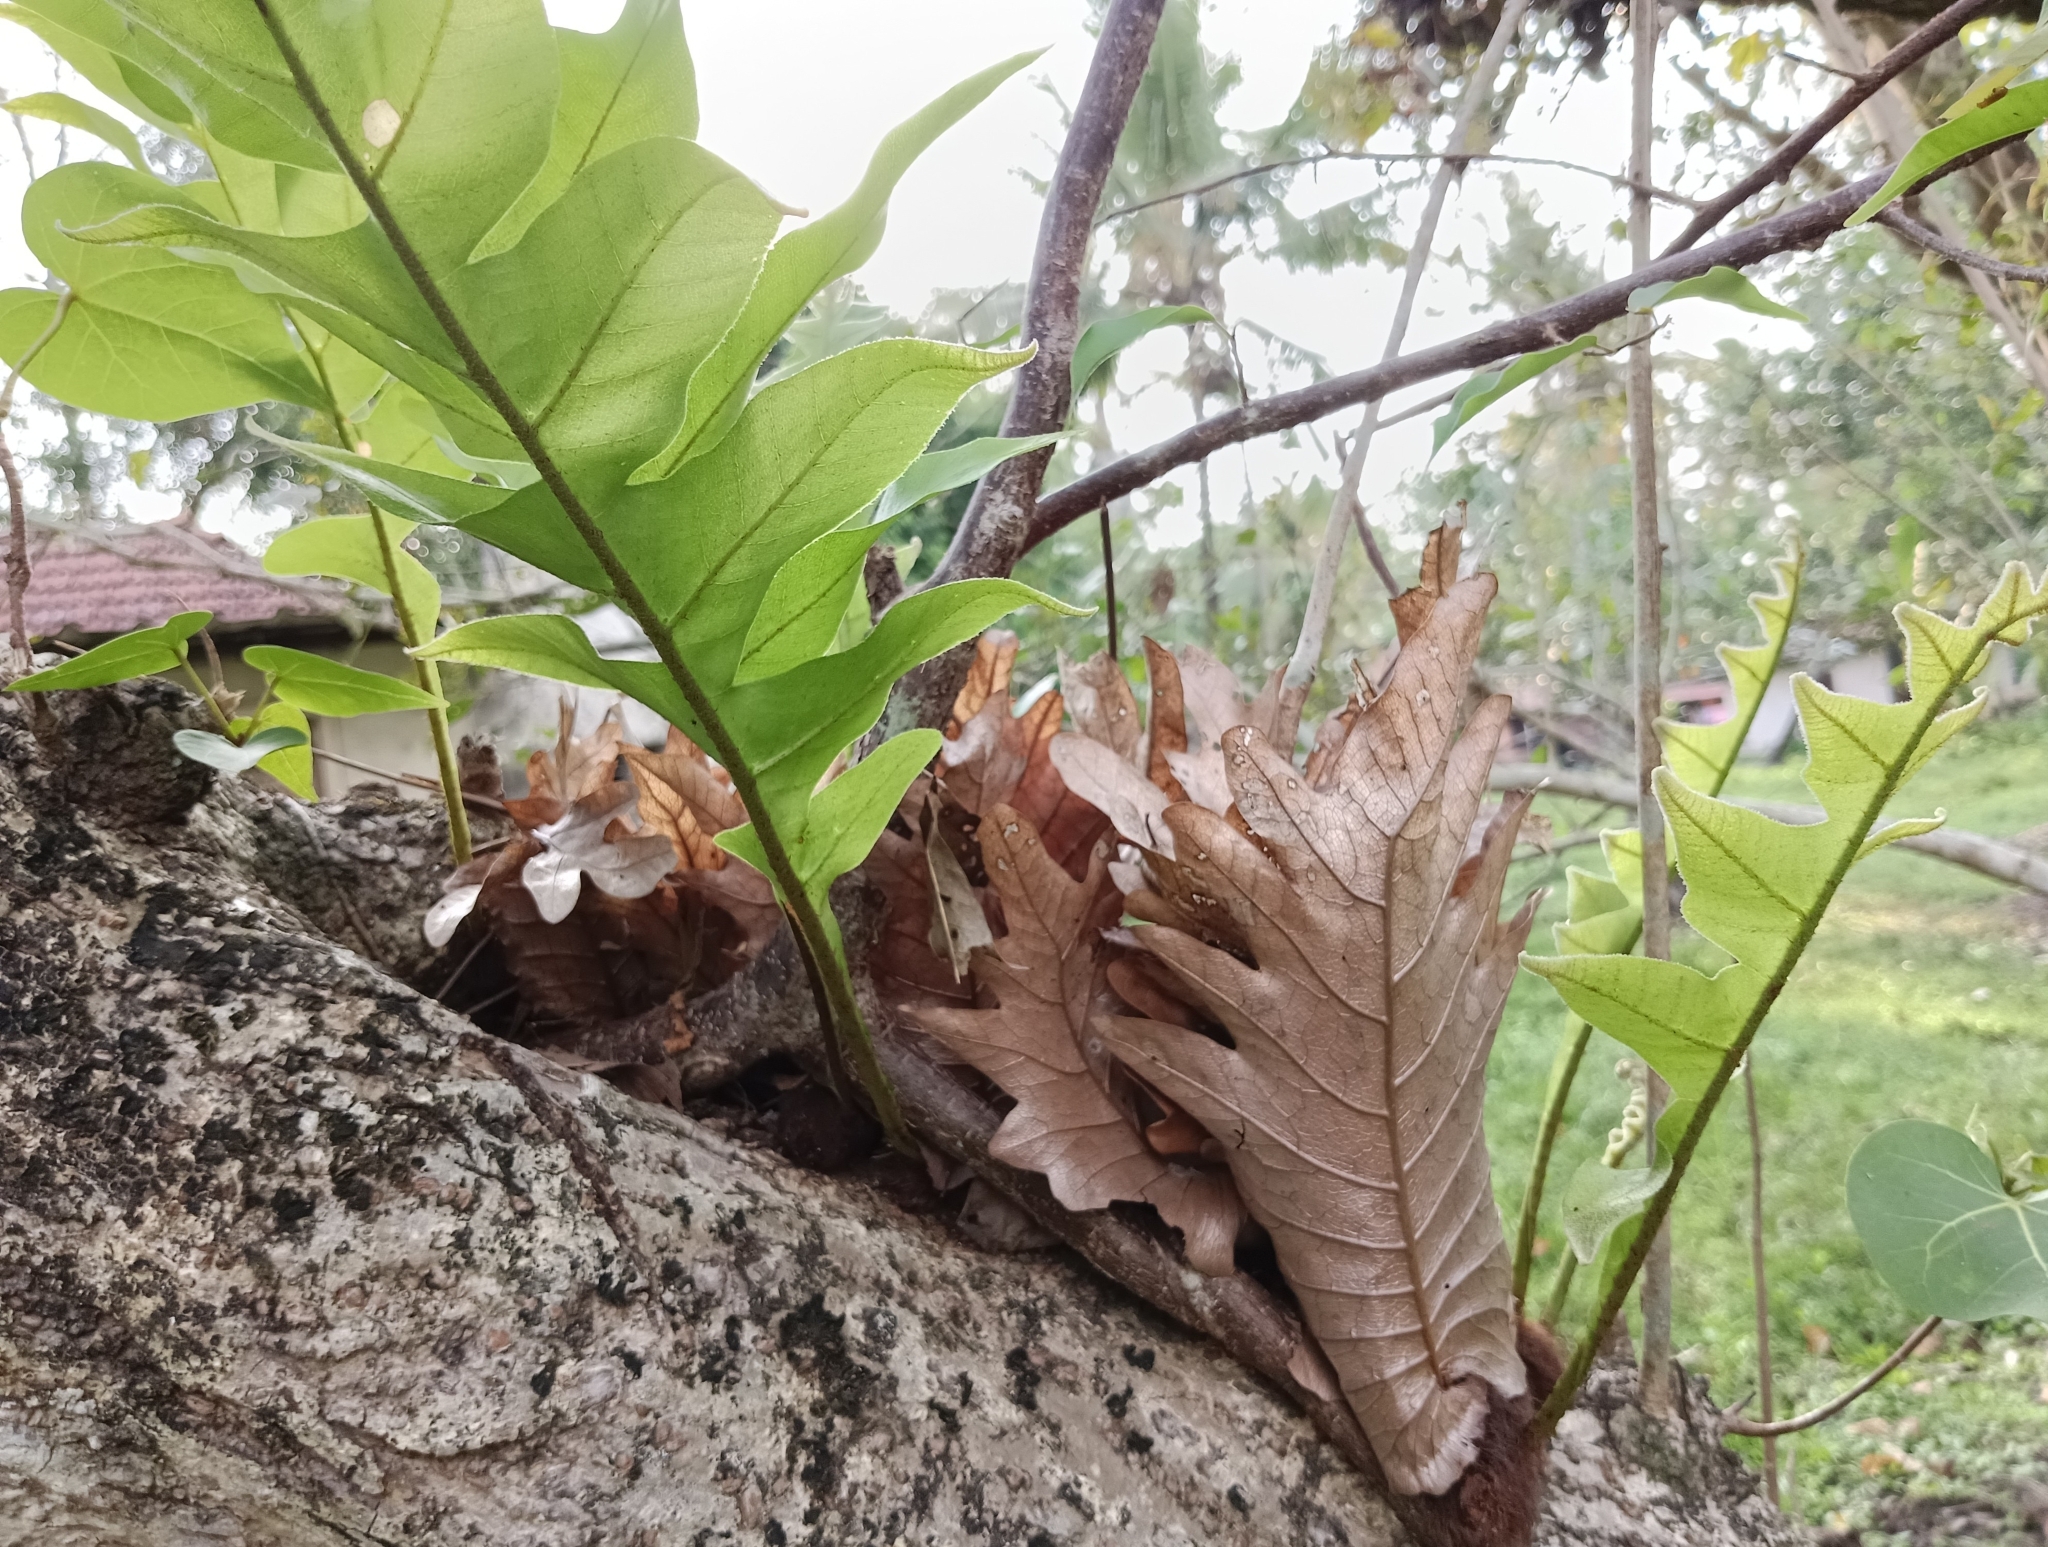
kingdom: Plantae
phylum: Tracheophyta
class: Polypodiopsida
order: Polypodiales
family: Polypodiaceae
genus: Drynaria
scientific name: Drynaria quercifolia
